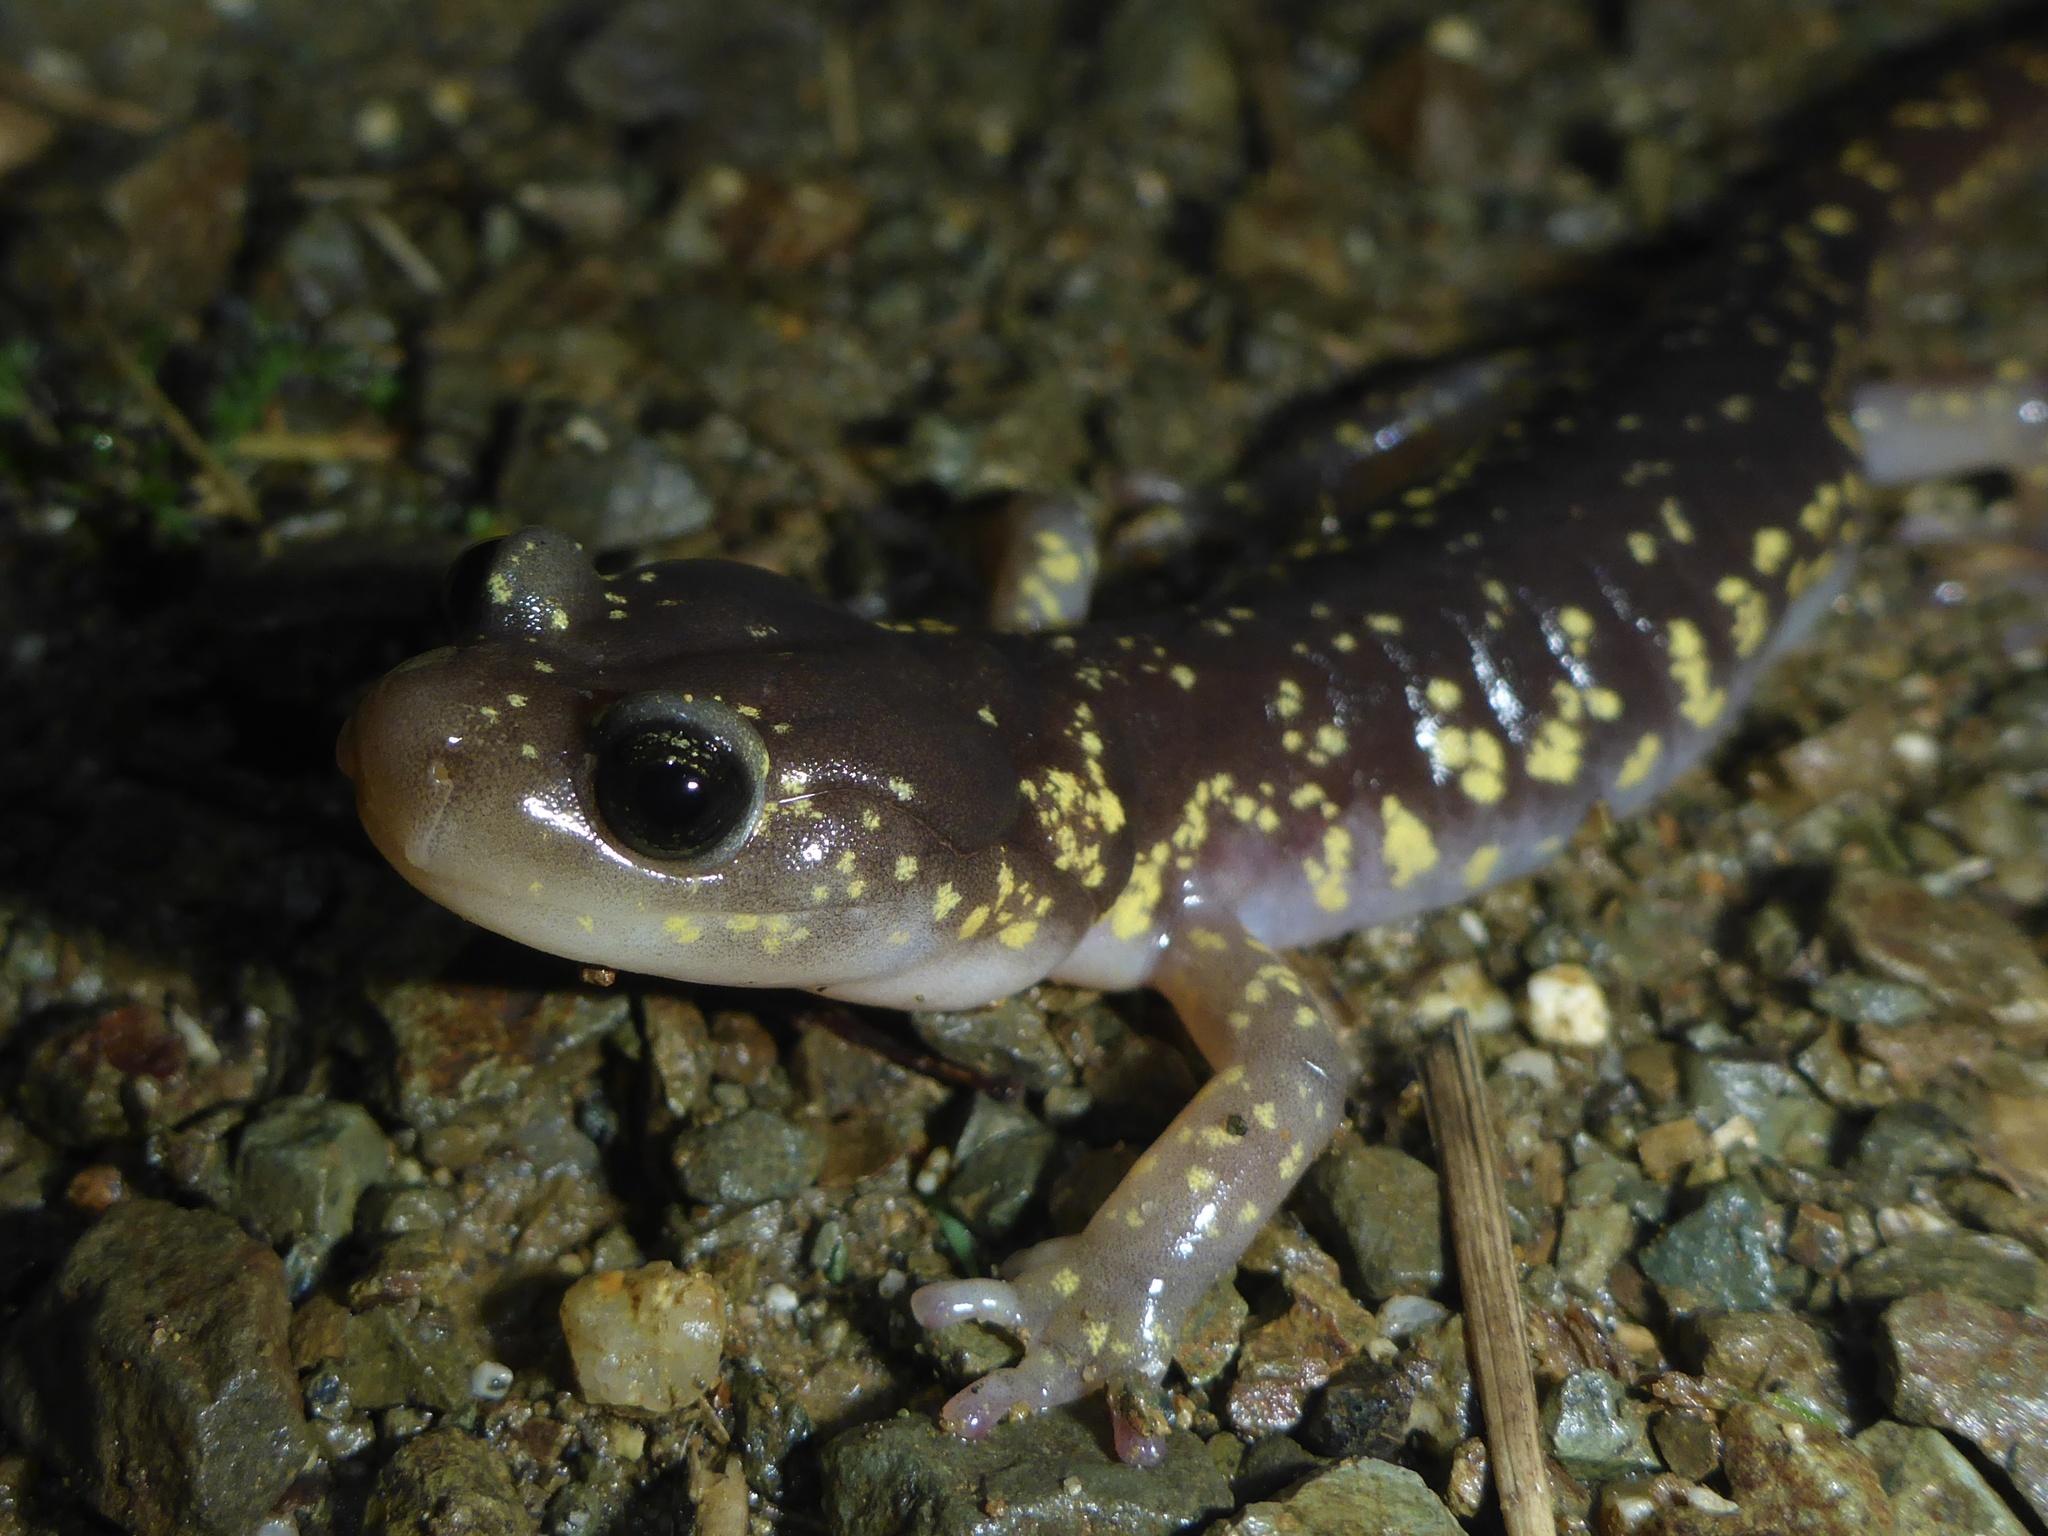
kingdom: Animalia
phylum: Chordata
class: Amphibia
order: Caudata
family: Plethodontidae
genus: Aneides
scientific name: Aneides lugubris
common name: Arboreal salamander
